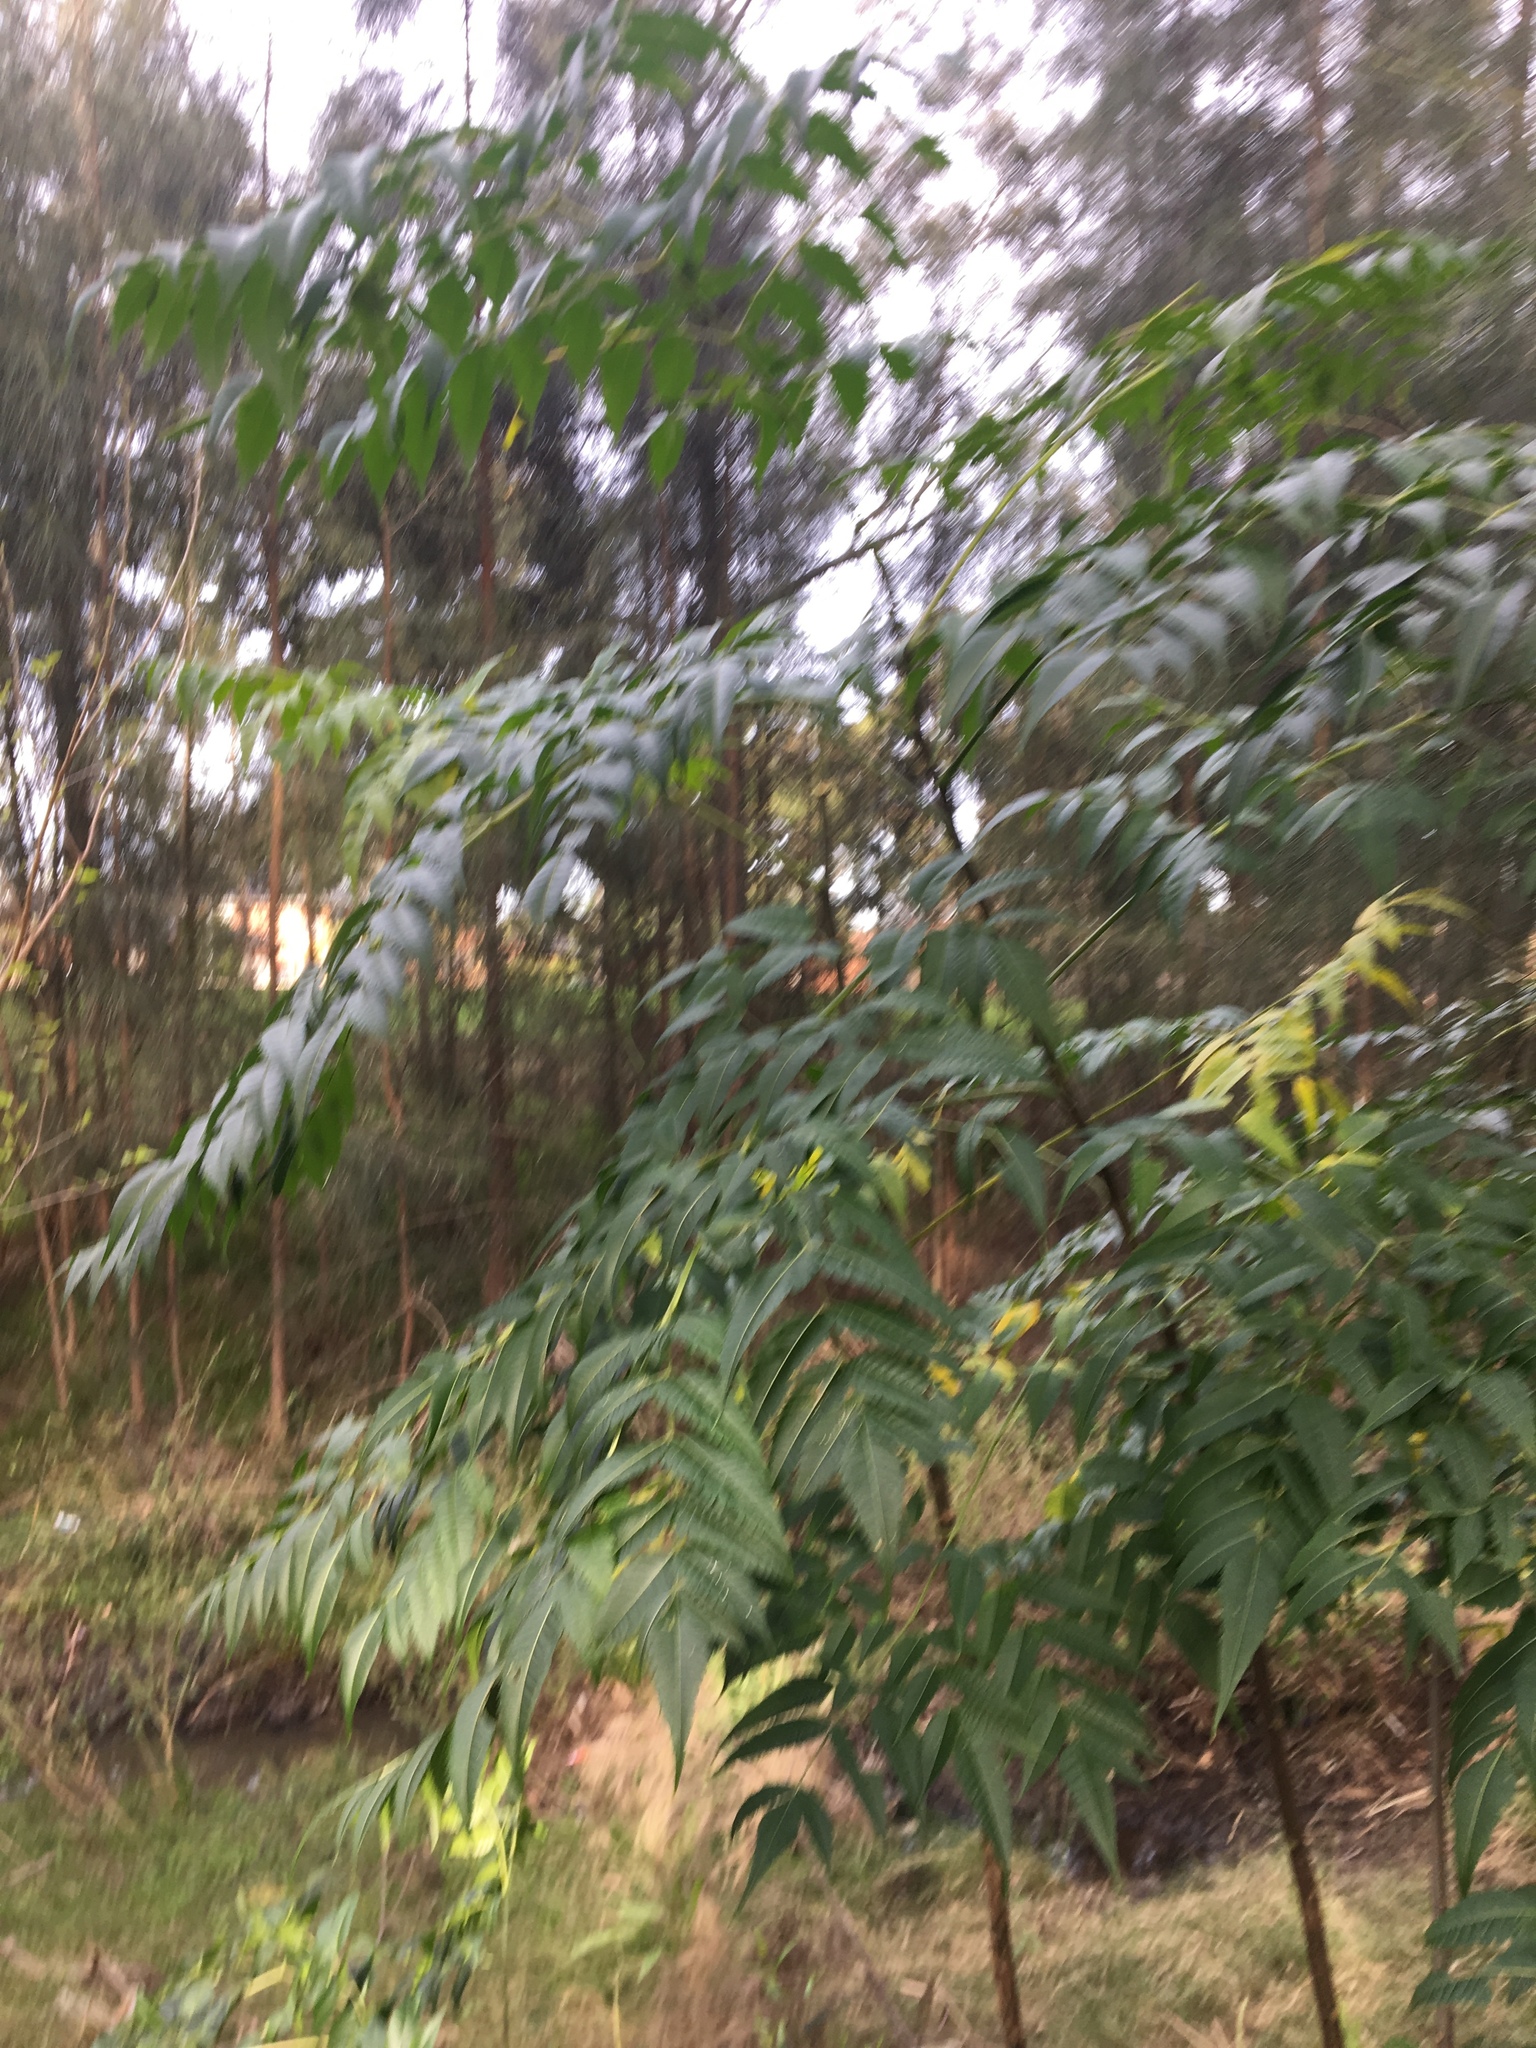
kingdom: Plantae
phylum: Tracheophyta
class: Magnoliopsida
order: Sapindales
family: Meliaceae
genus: Melia
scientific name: Melia azedarach
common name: Chinaberrytree
